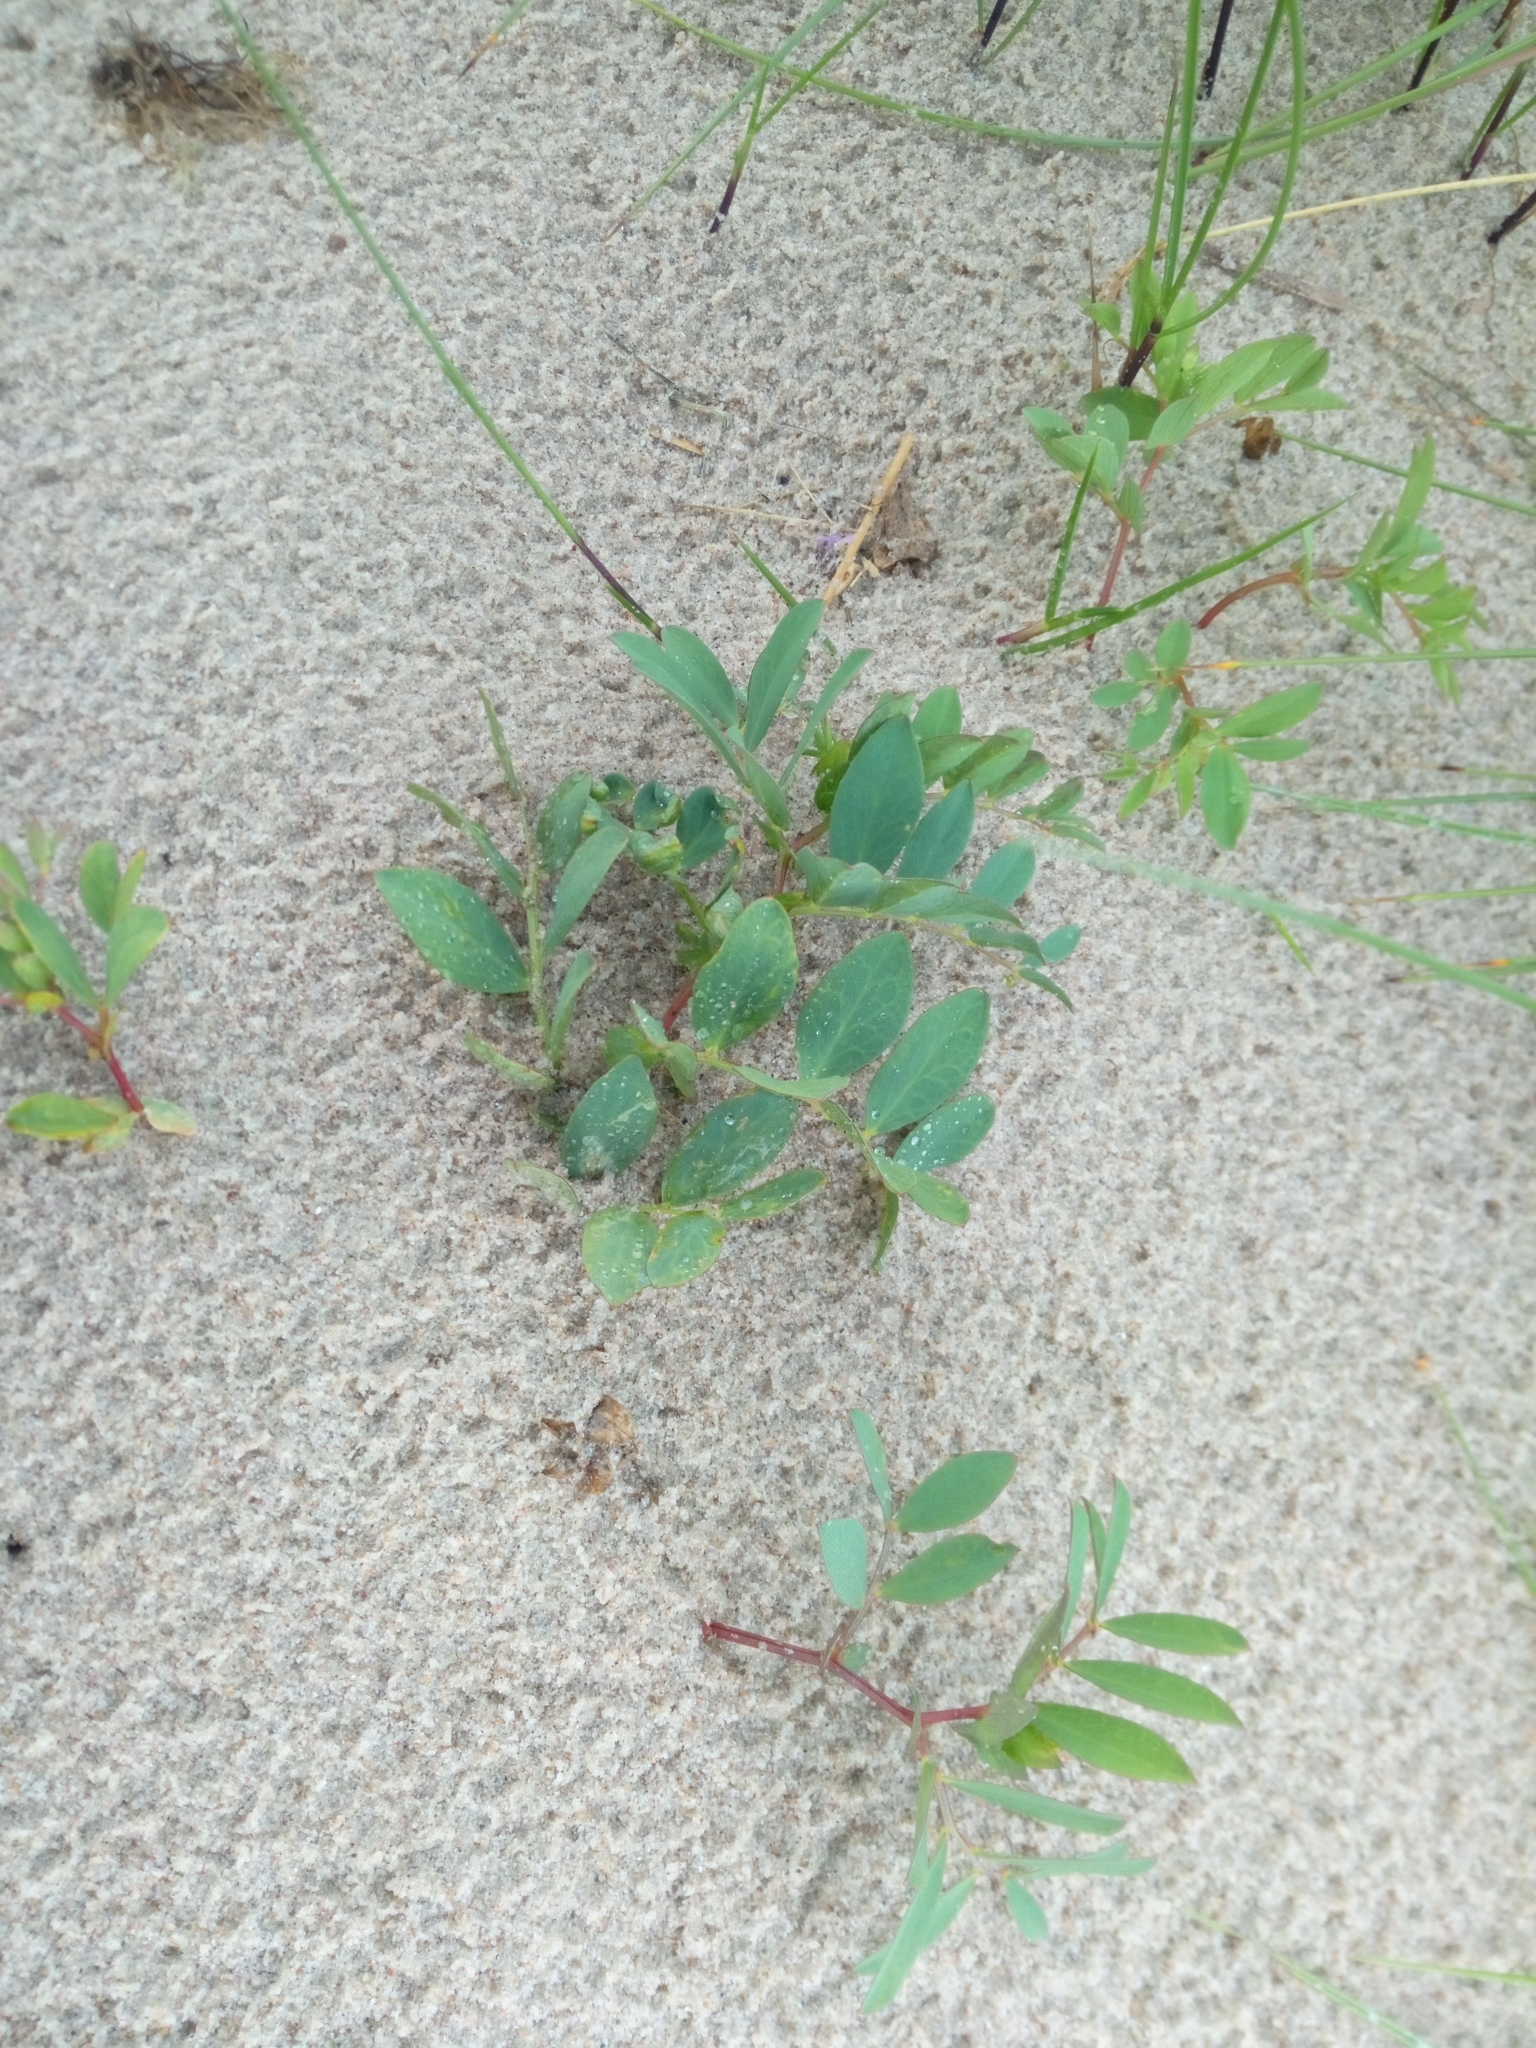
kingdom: Plantae
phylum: Tracheophyta
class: Magnoliopsida
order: Fabales
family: Fabaceae
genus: Lathyrus
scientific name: Lathyrus japonicus
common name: Sea pea
